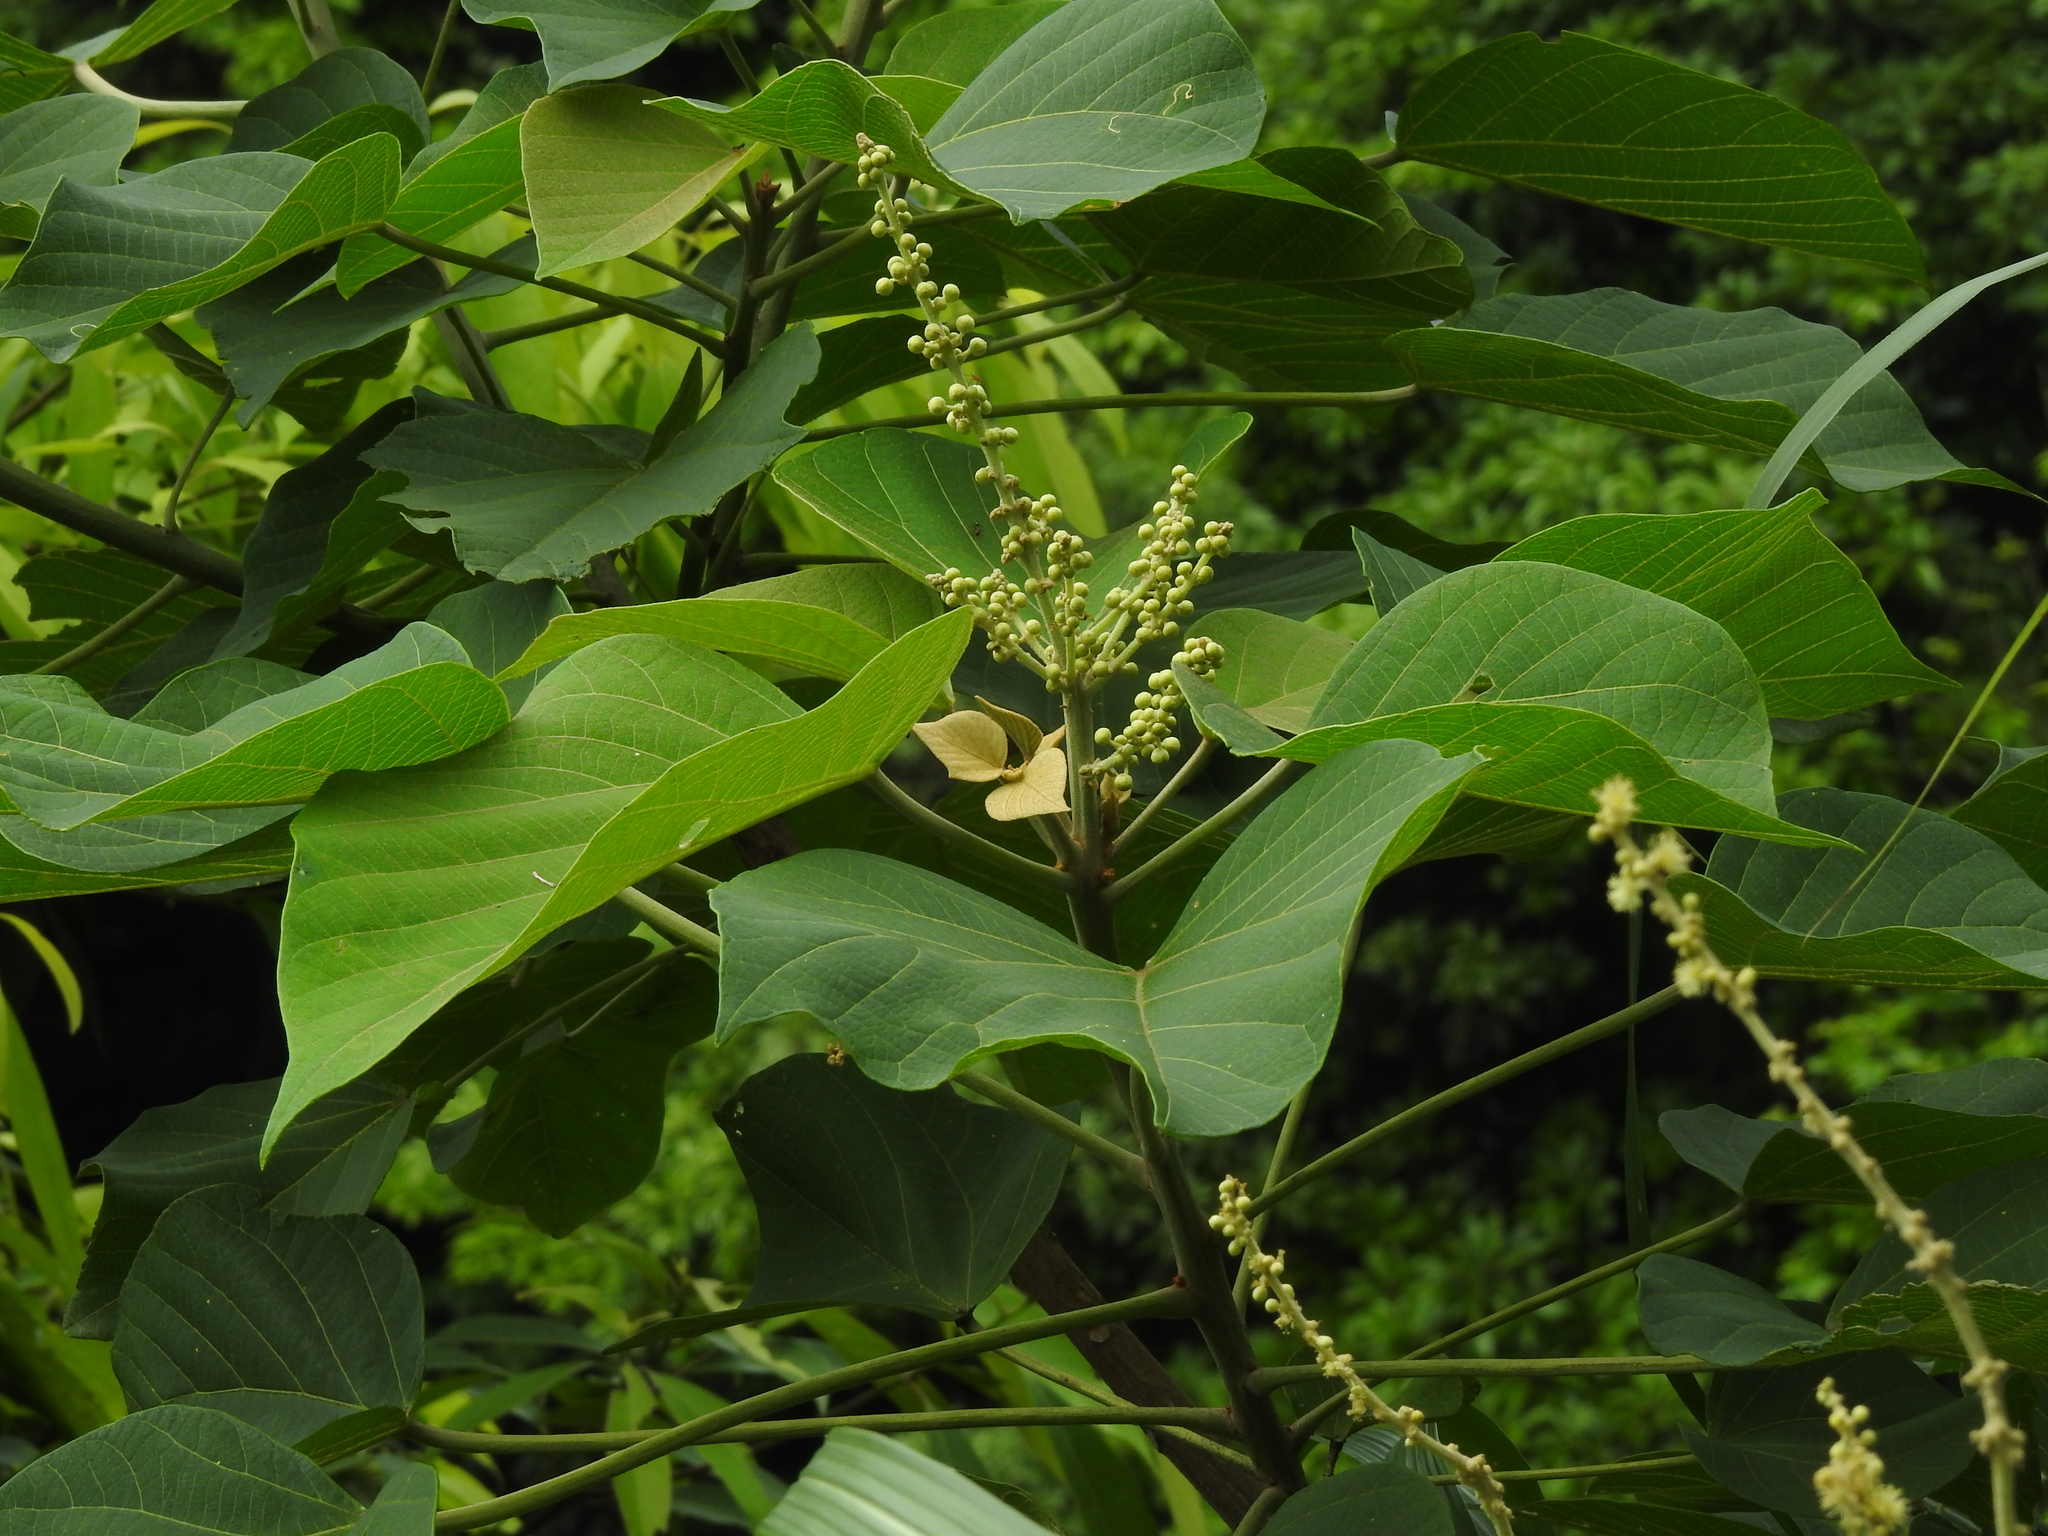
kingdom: Plantae
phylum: Tracheophyta
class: Magnoliopsida
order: Malpighiales
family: Euphorbiaceae
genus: Mallotus
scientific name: Mallotus japonicus
